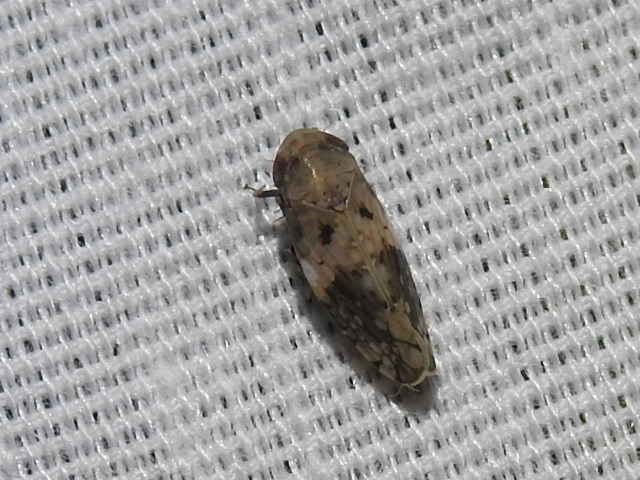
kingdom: Animalia
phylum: Arthropoda
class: Insecta
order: Hemiptera
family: Cicadellidae
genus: Menosoma
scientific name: Menosoma cinctum
